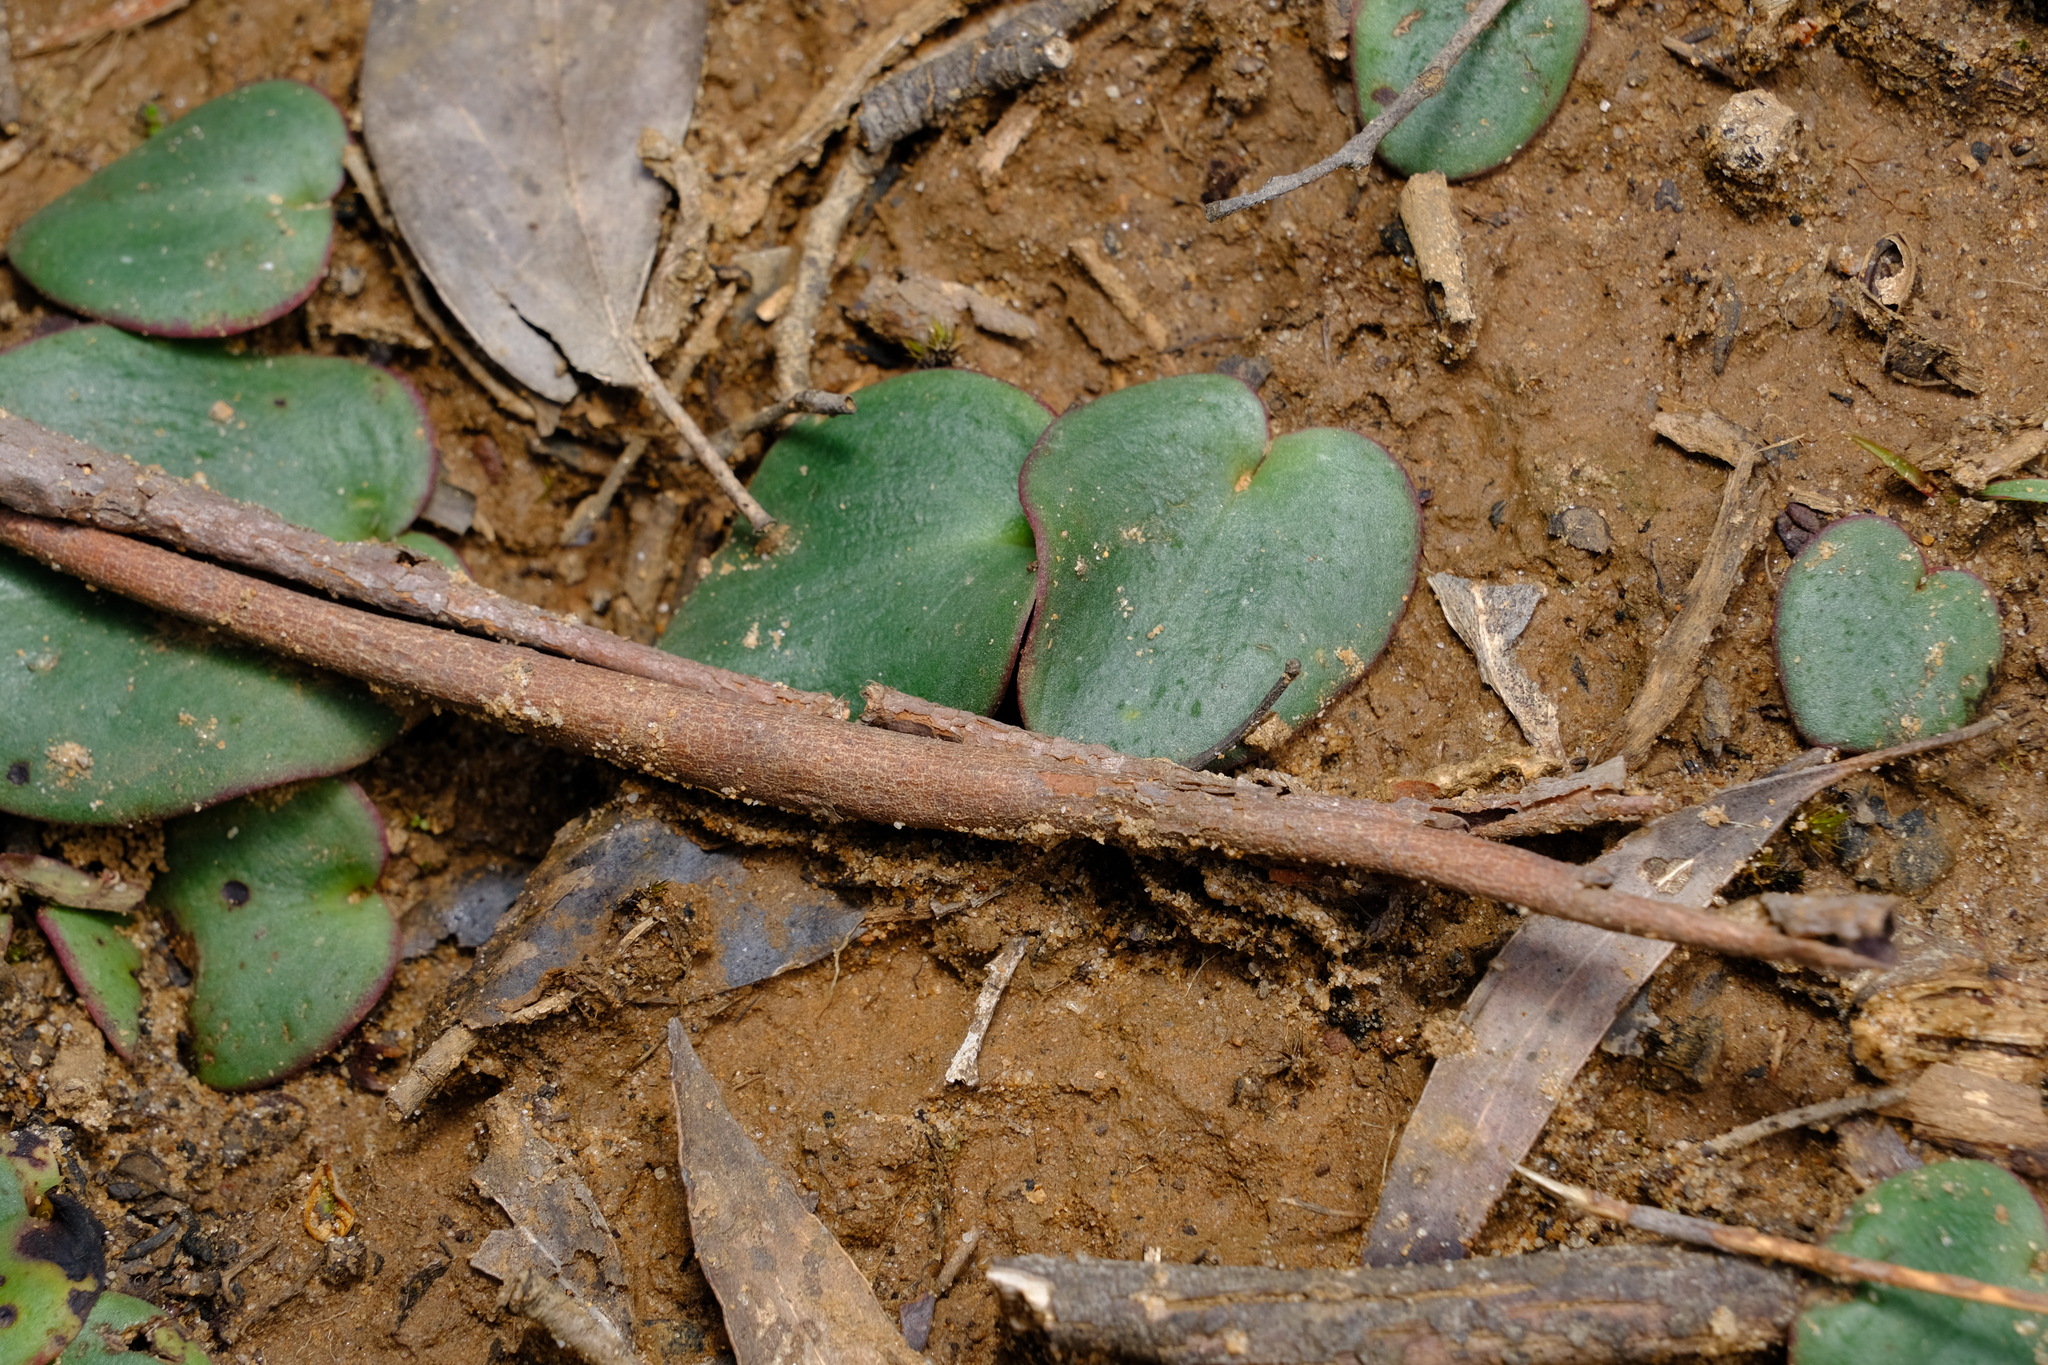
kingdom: Plantae
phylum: Tracheophyta
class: Liliopsida
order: Asparagales
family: Orchidaceae
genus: Pyrorchis
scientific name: Pyrorchis nigricans
